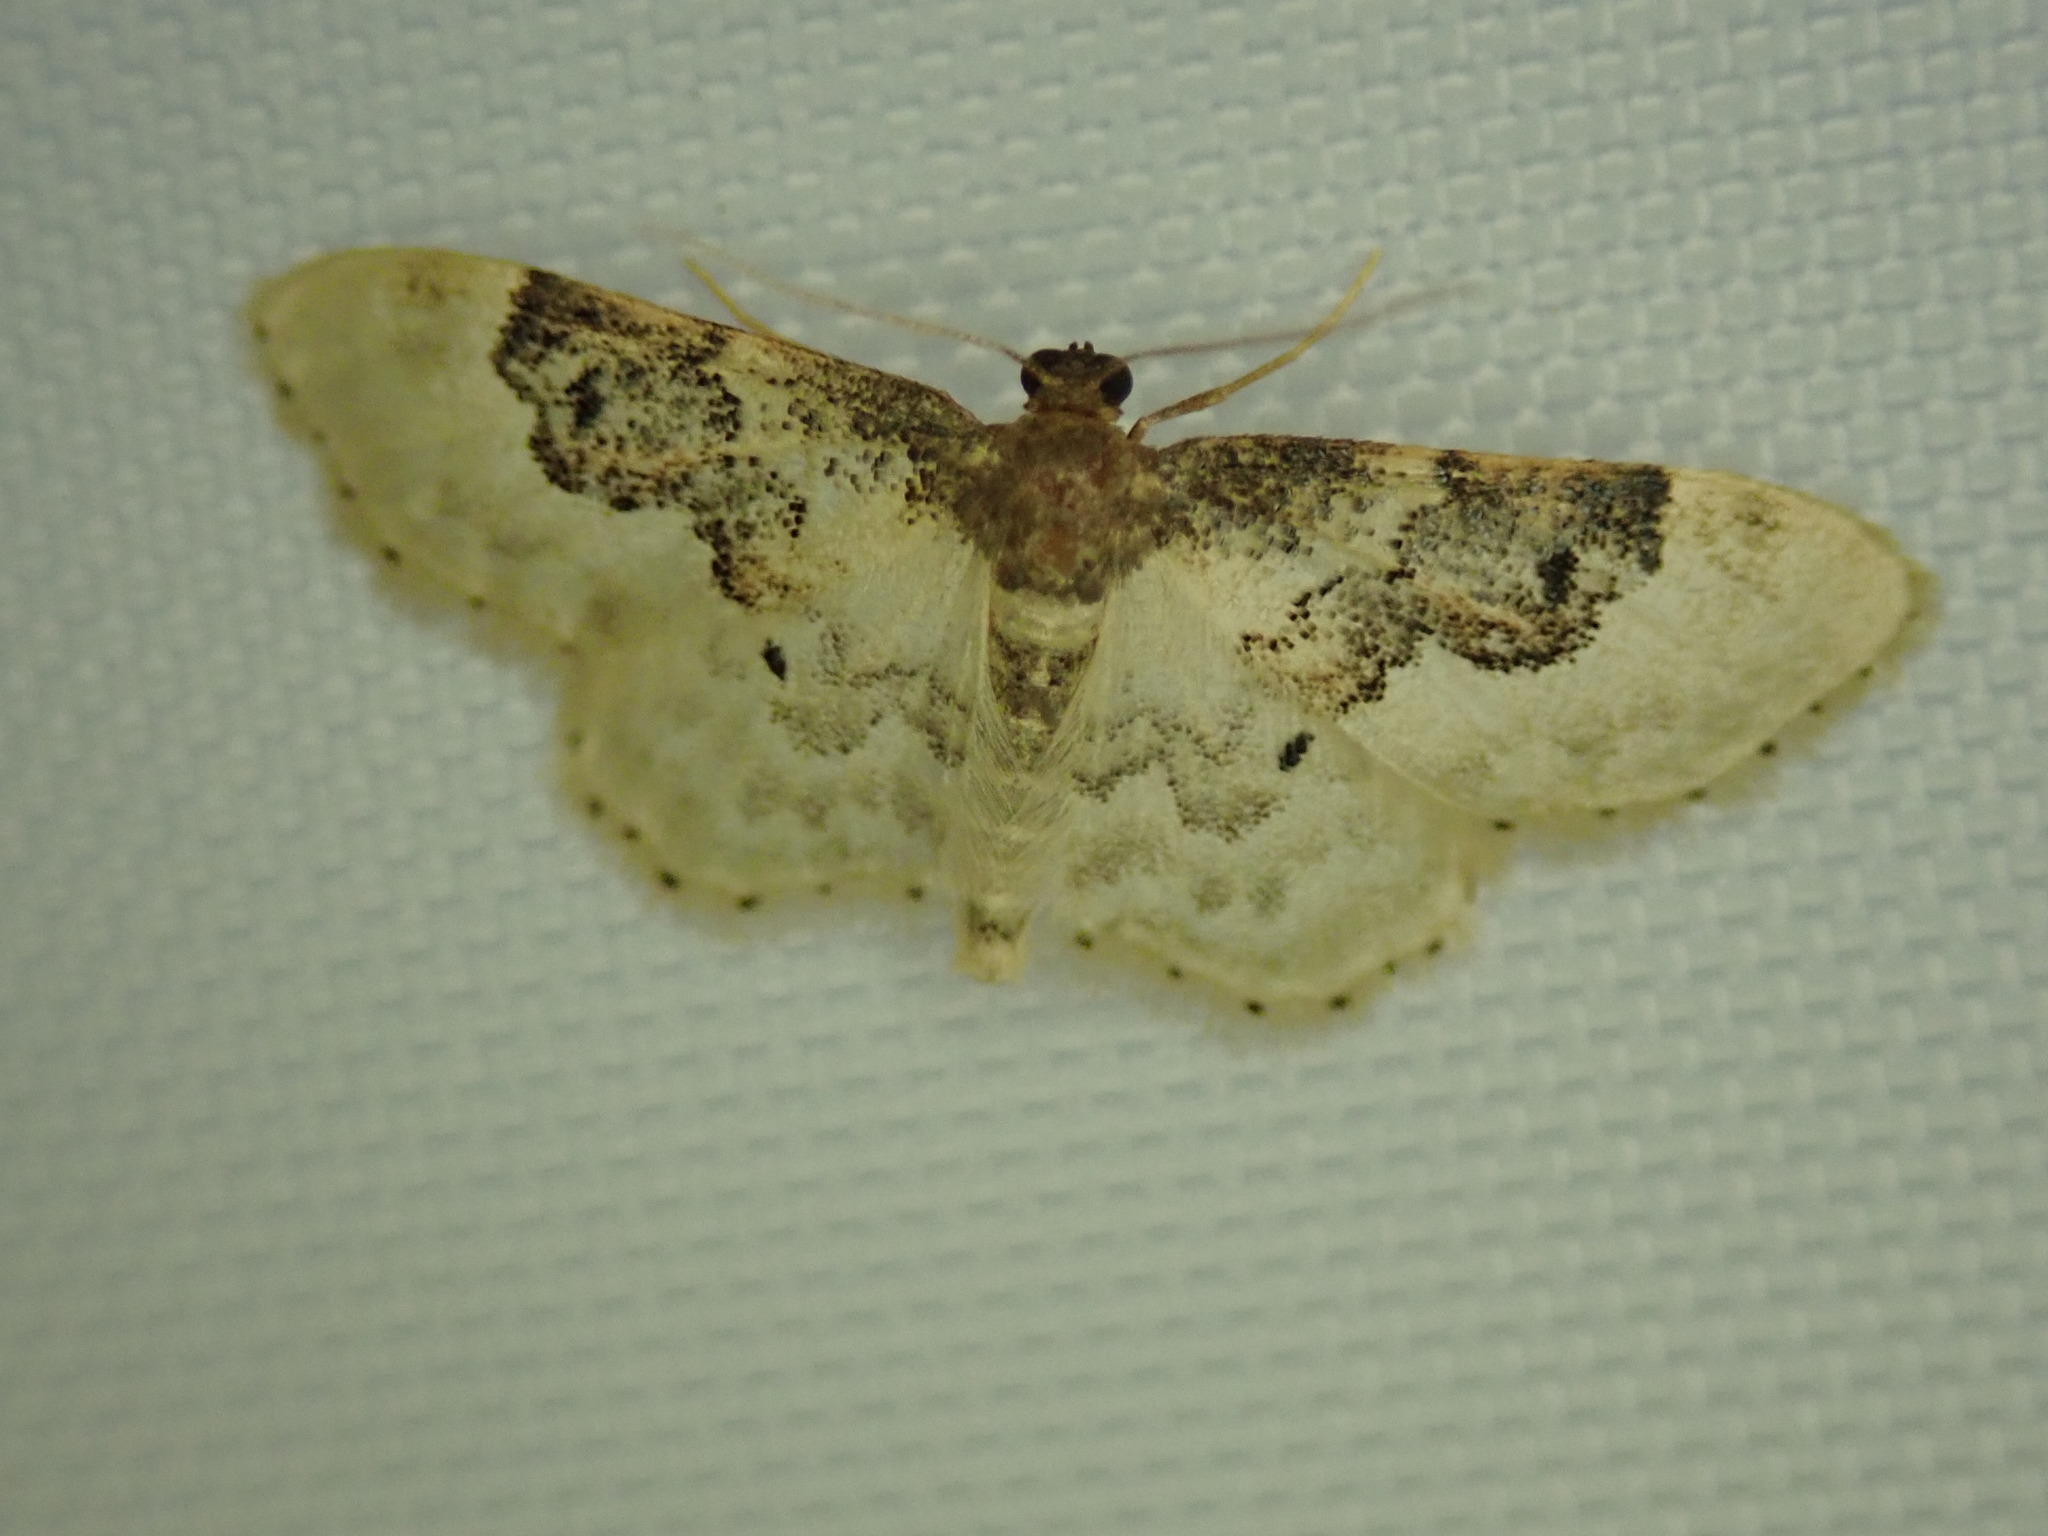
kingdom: Animalia
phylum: Arthropoda
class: Insecta
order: Lepidoptera
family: Geometridae
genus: Idaea
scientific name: Idaea rusticata
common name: Least carpet
